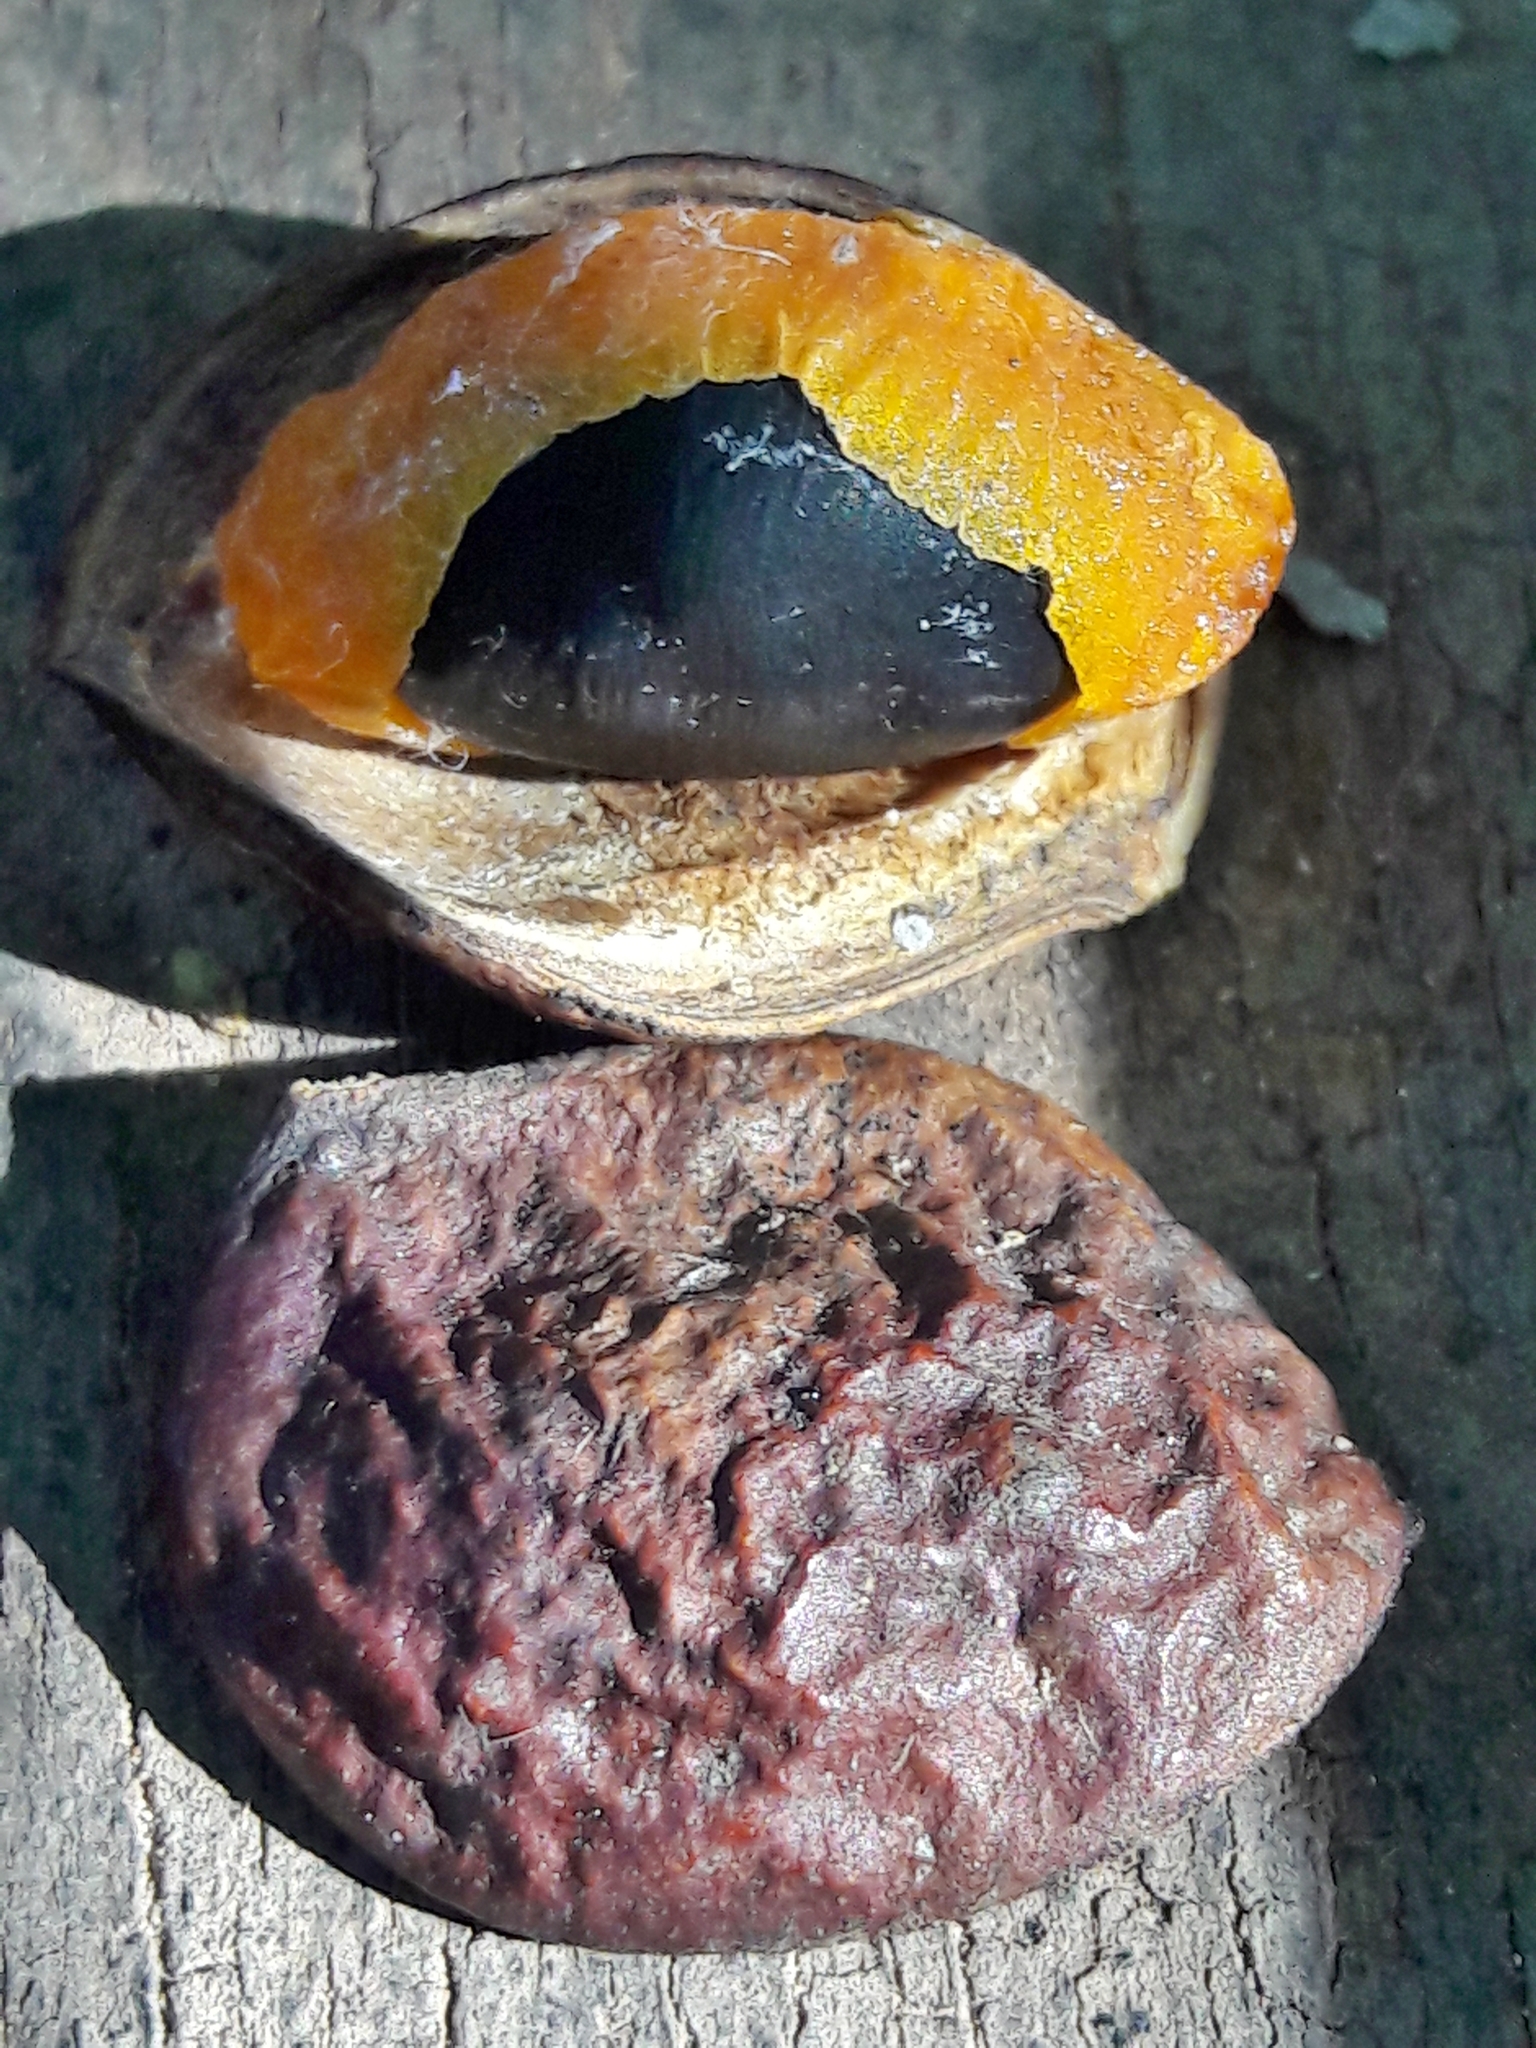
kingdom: Plantae
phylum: Tracheophyta
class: Magnoliopsida
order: Fabales
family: Fabaceae
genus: Copaifera
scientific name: Copaifera langsdorffii
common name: Brazilian diesel tree
